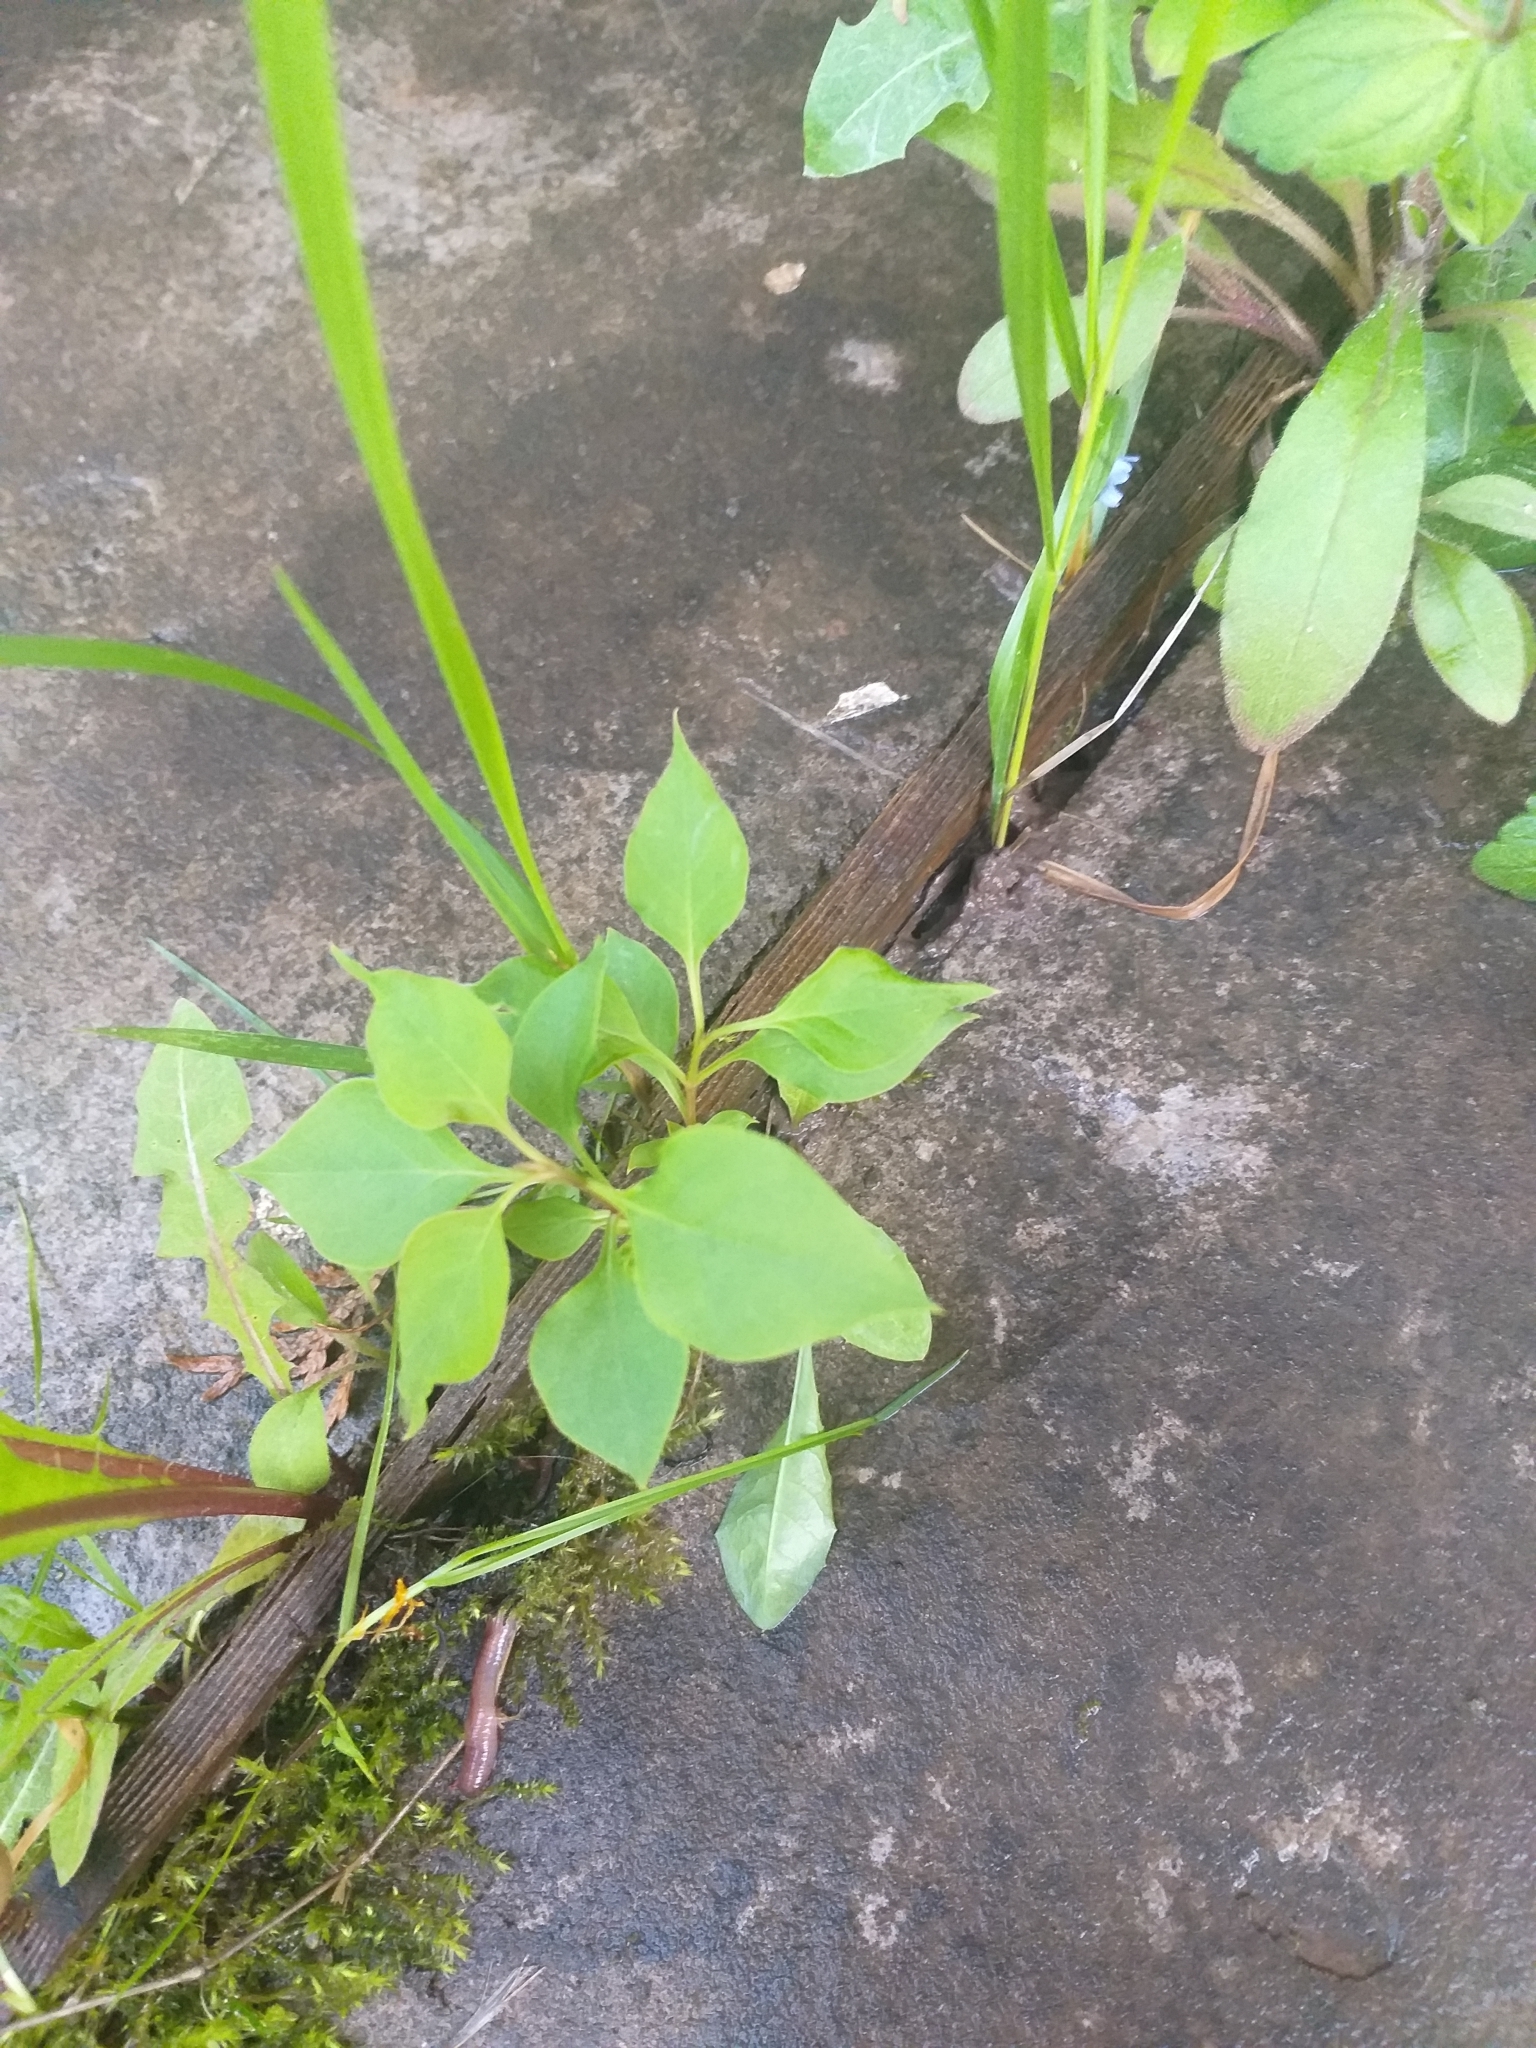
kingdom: Plantae
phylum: Tracheophyta
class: Magnoliopsida
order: Lamiales
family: Oleaceae
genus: Syringa
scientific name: Syringa vulgaris
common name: Common lilac
